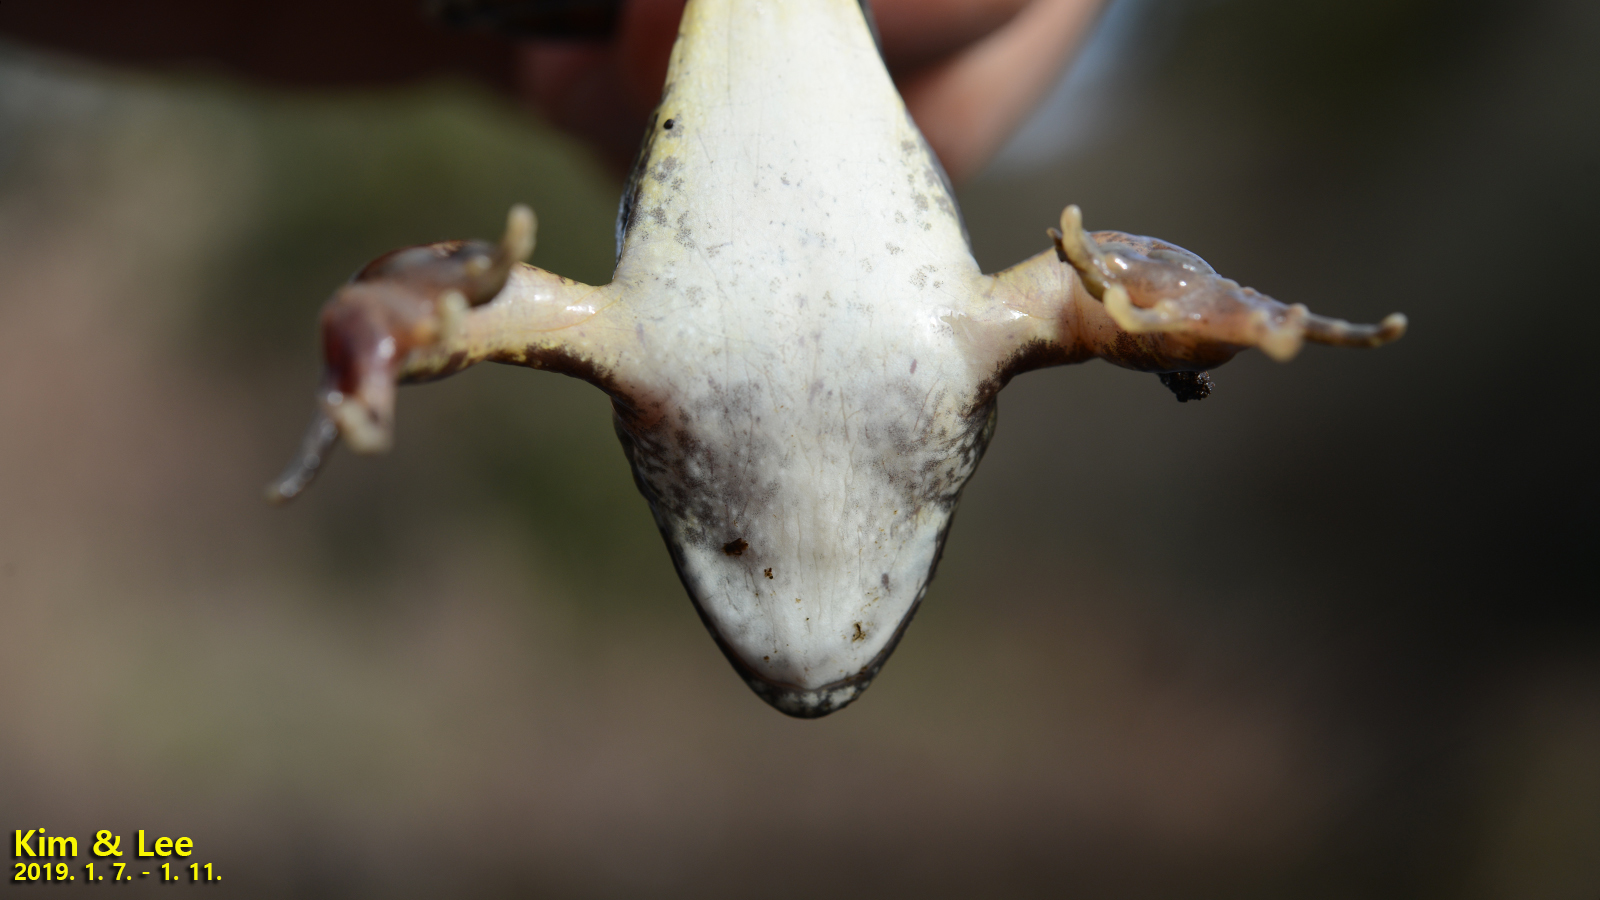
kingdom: Animalia
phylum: Chordata
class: Amphibia
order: Anura
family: Ranidae
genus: Rana
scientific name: Rana uenoi
